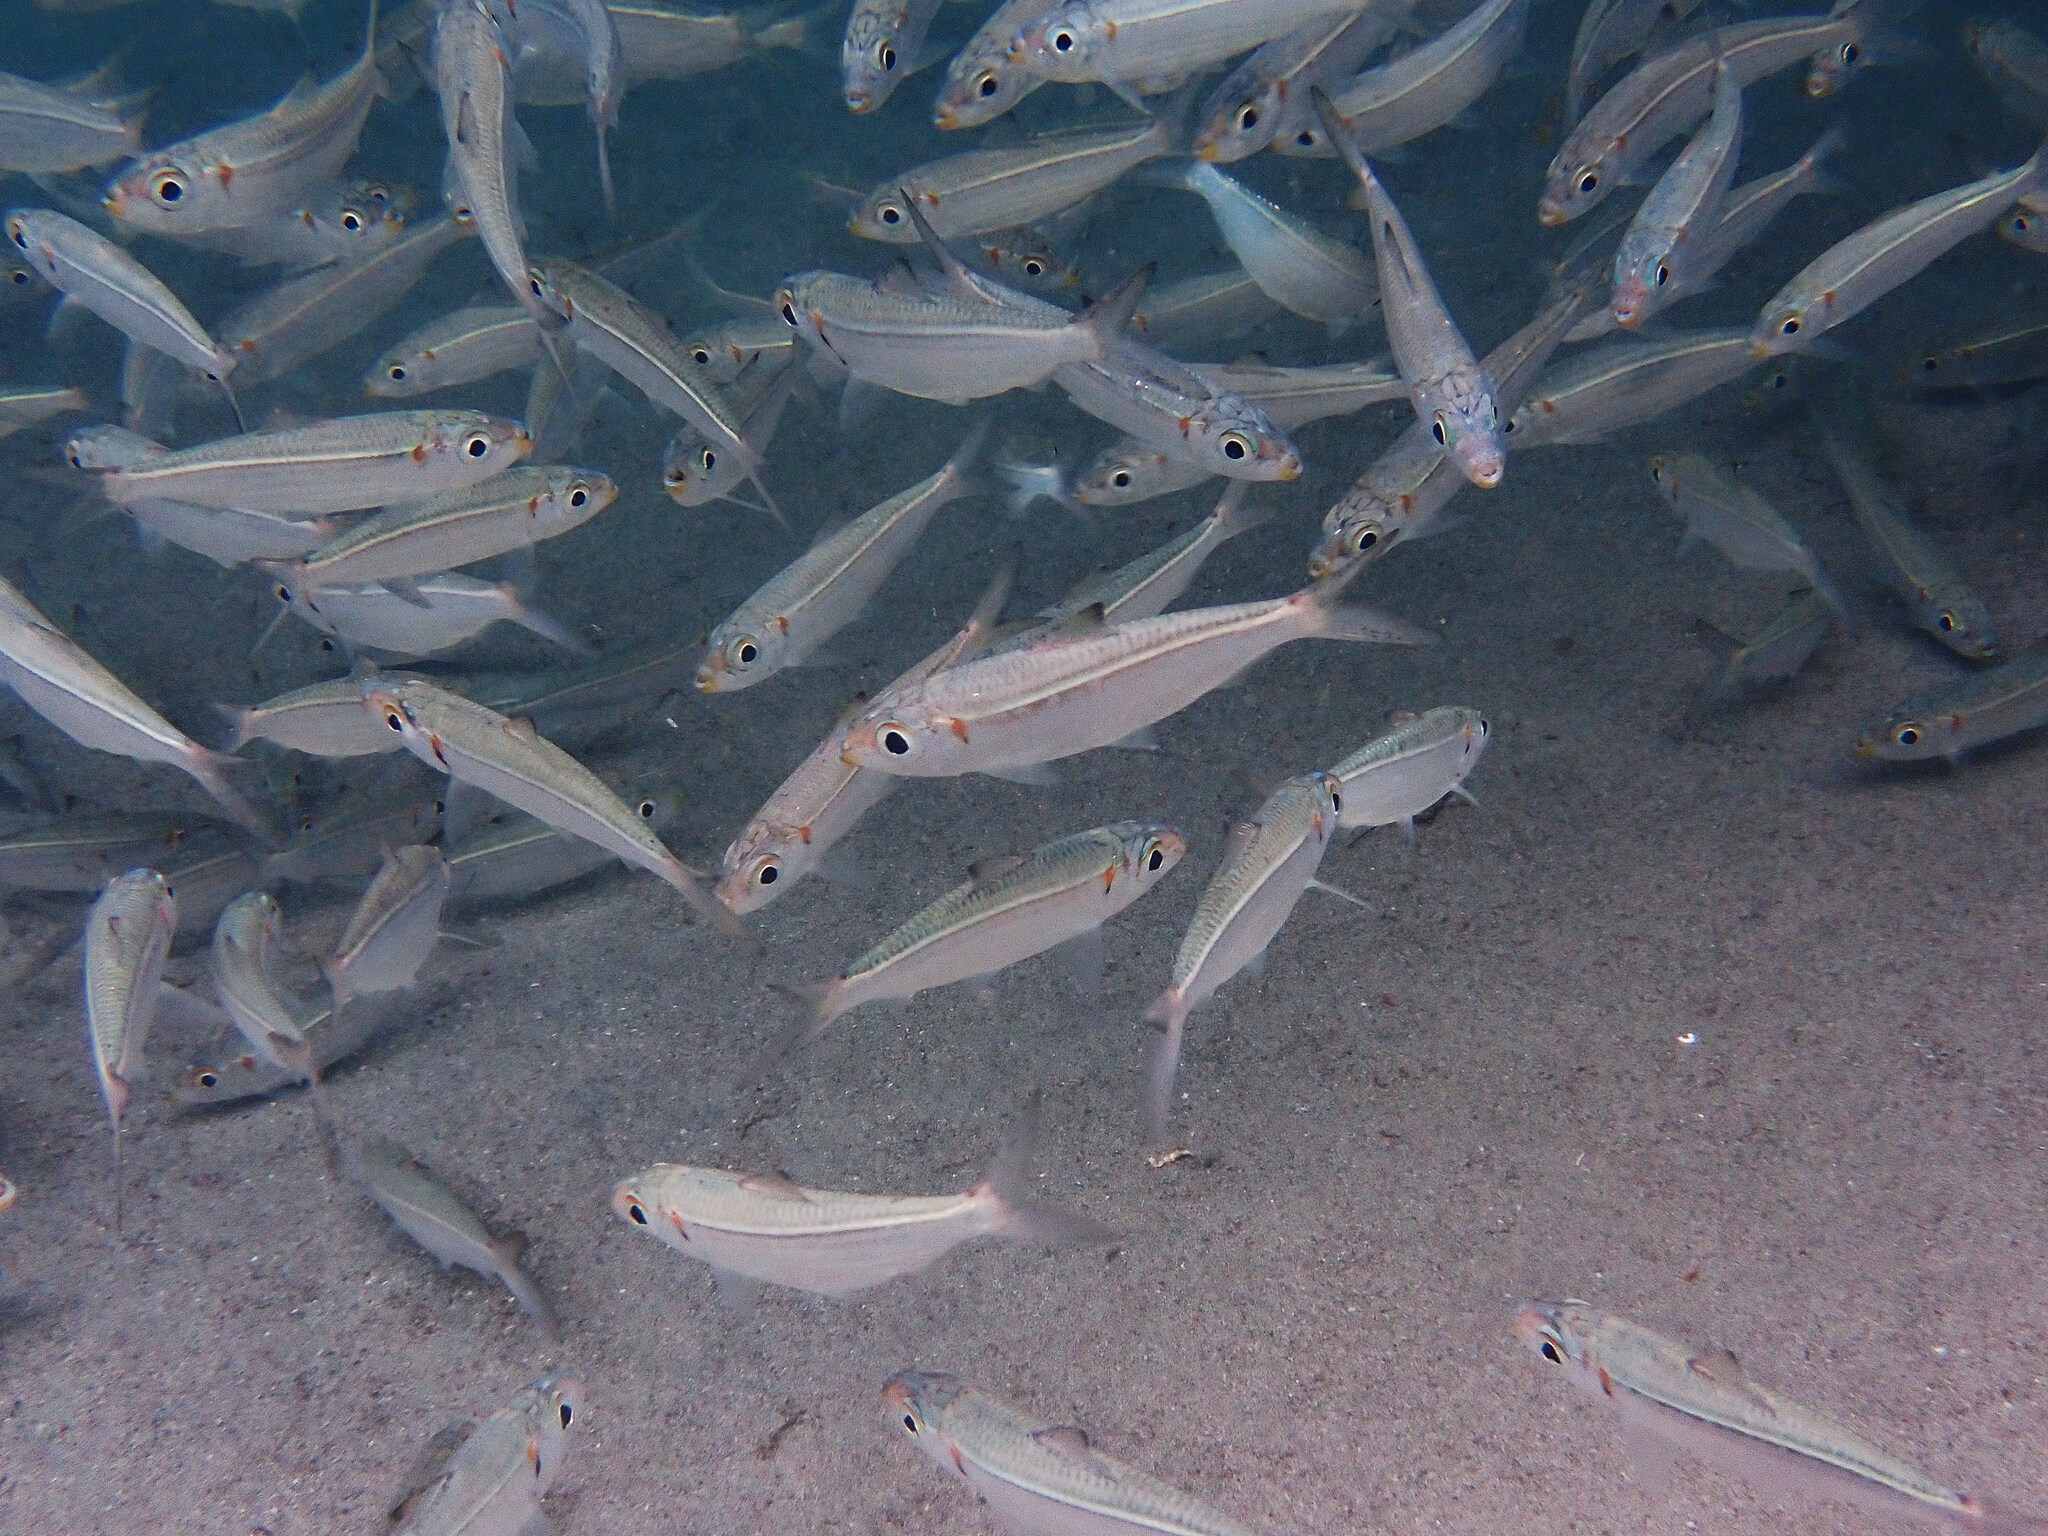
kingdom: Animalia
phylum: Chordata
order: Clupeiformes
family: Clupeidae
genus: Harengula
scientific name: Harengula humeralis
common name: Red-ear pilchard
